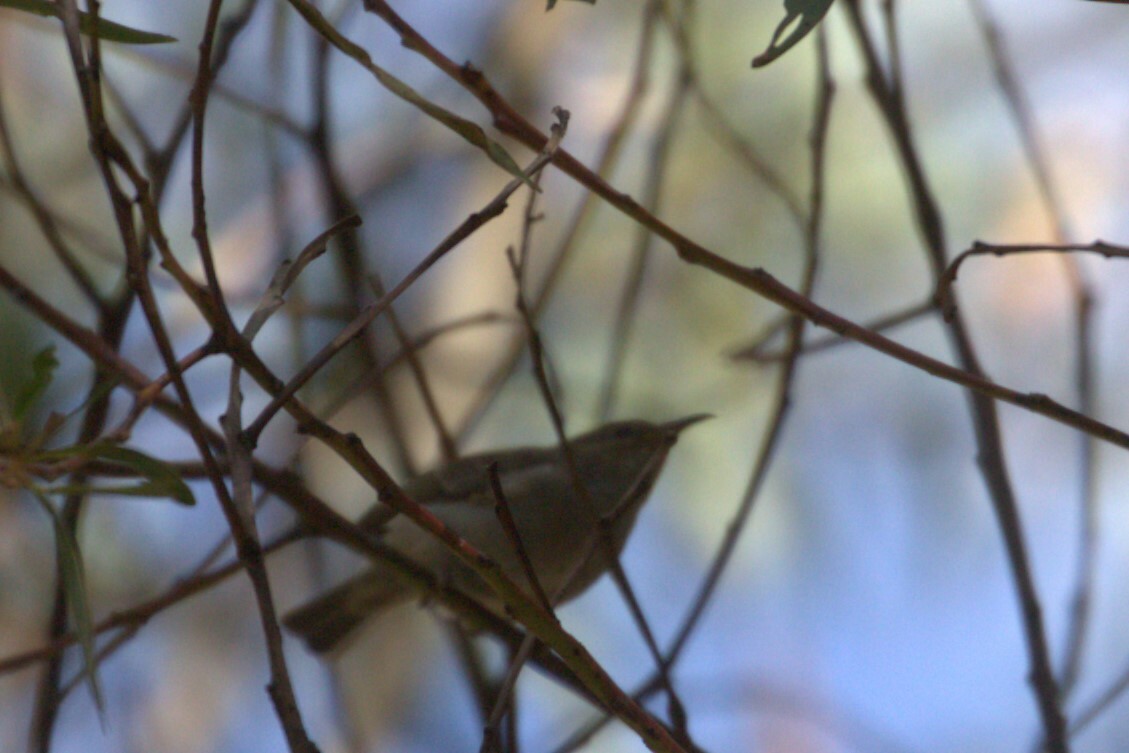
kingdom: Animalia
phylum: Chordata
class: Aves
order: Passeriformes
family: Meliphagidae
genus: Myzomela
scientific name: Myzomela sanguinolenta
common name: Scarlet myzomela
